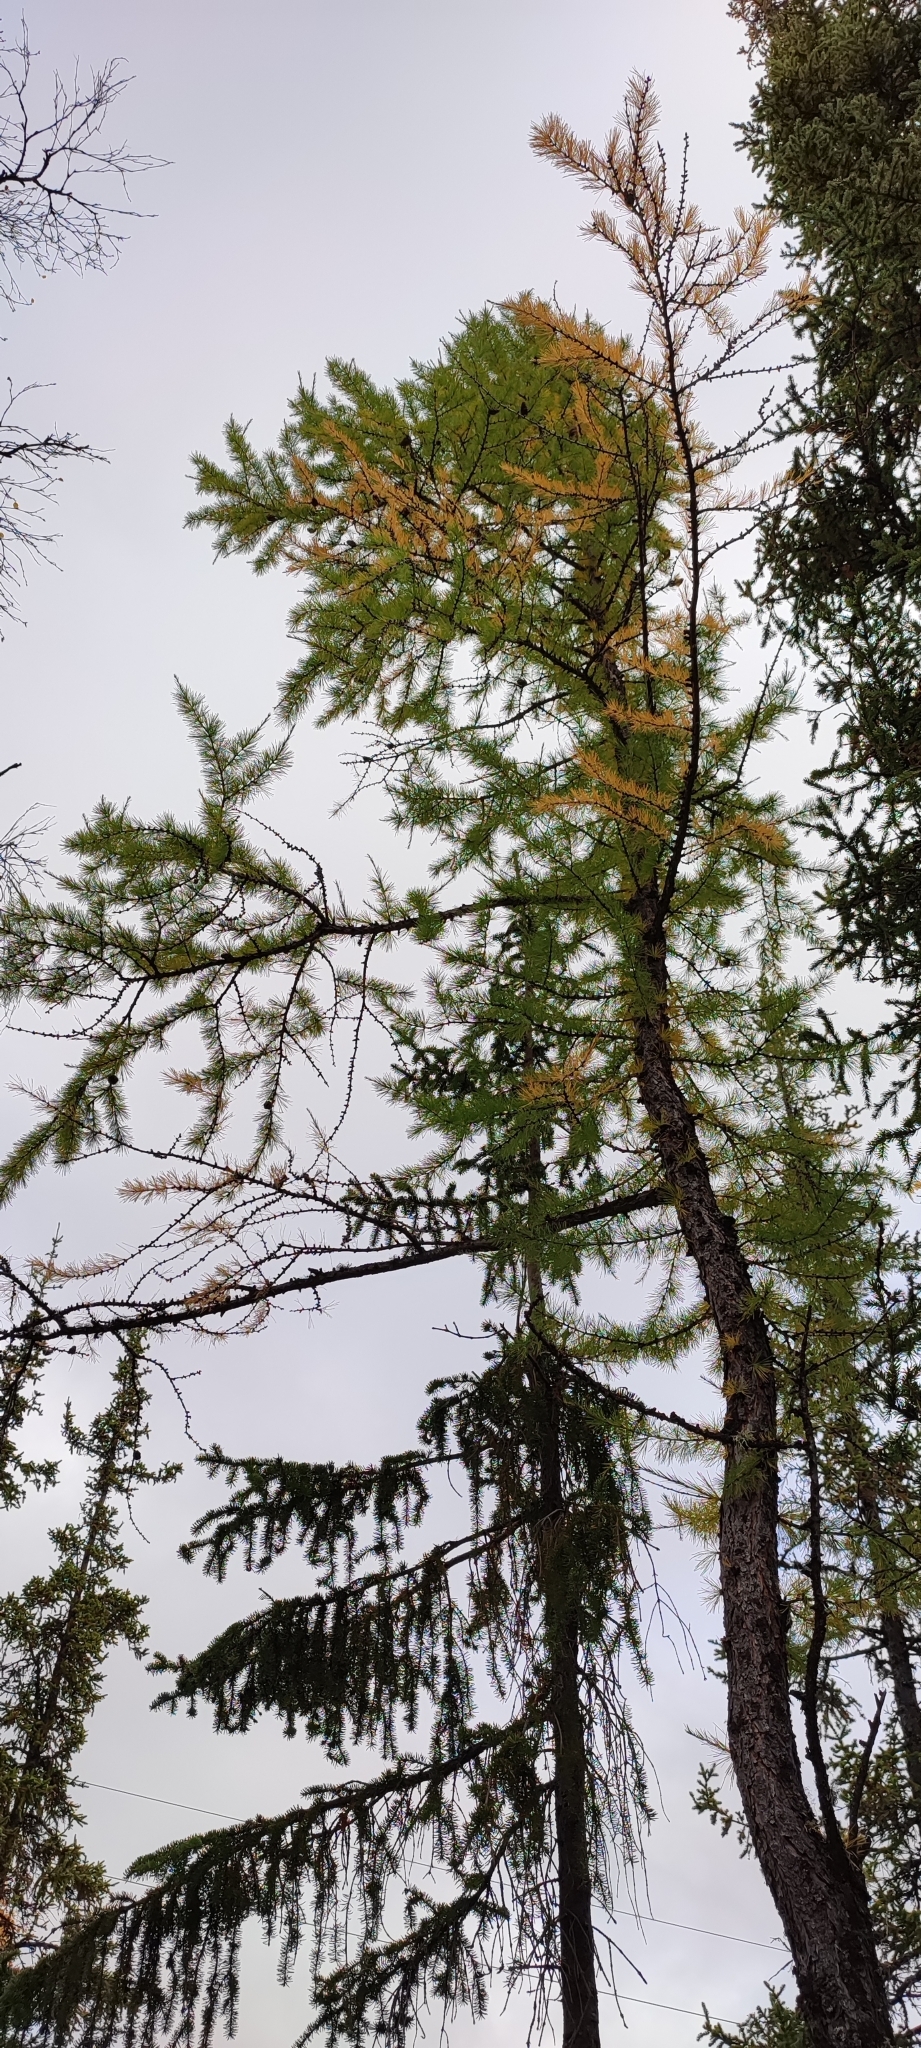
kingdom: Plantae
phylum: Tracheophyta
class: Pinopsida
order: Pinales
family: Pinaceae
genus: Larix
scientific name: Larix sibirica
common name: Siberian larch
